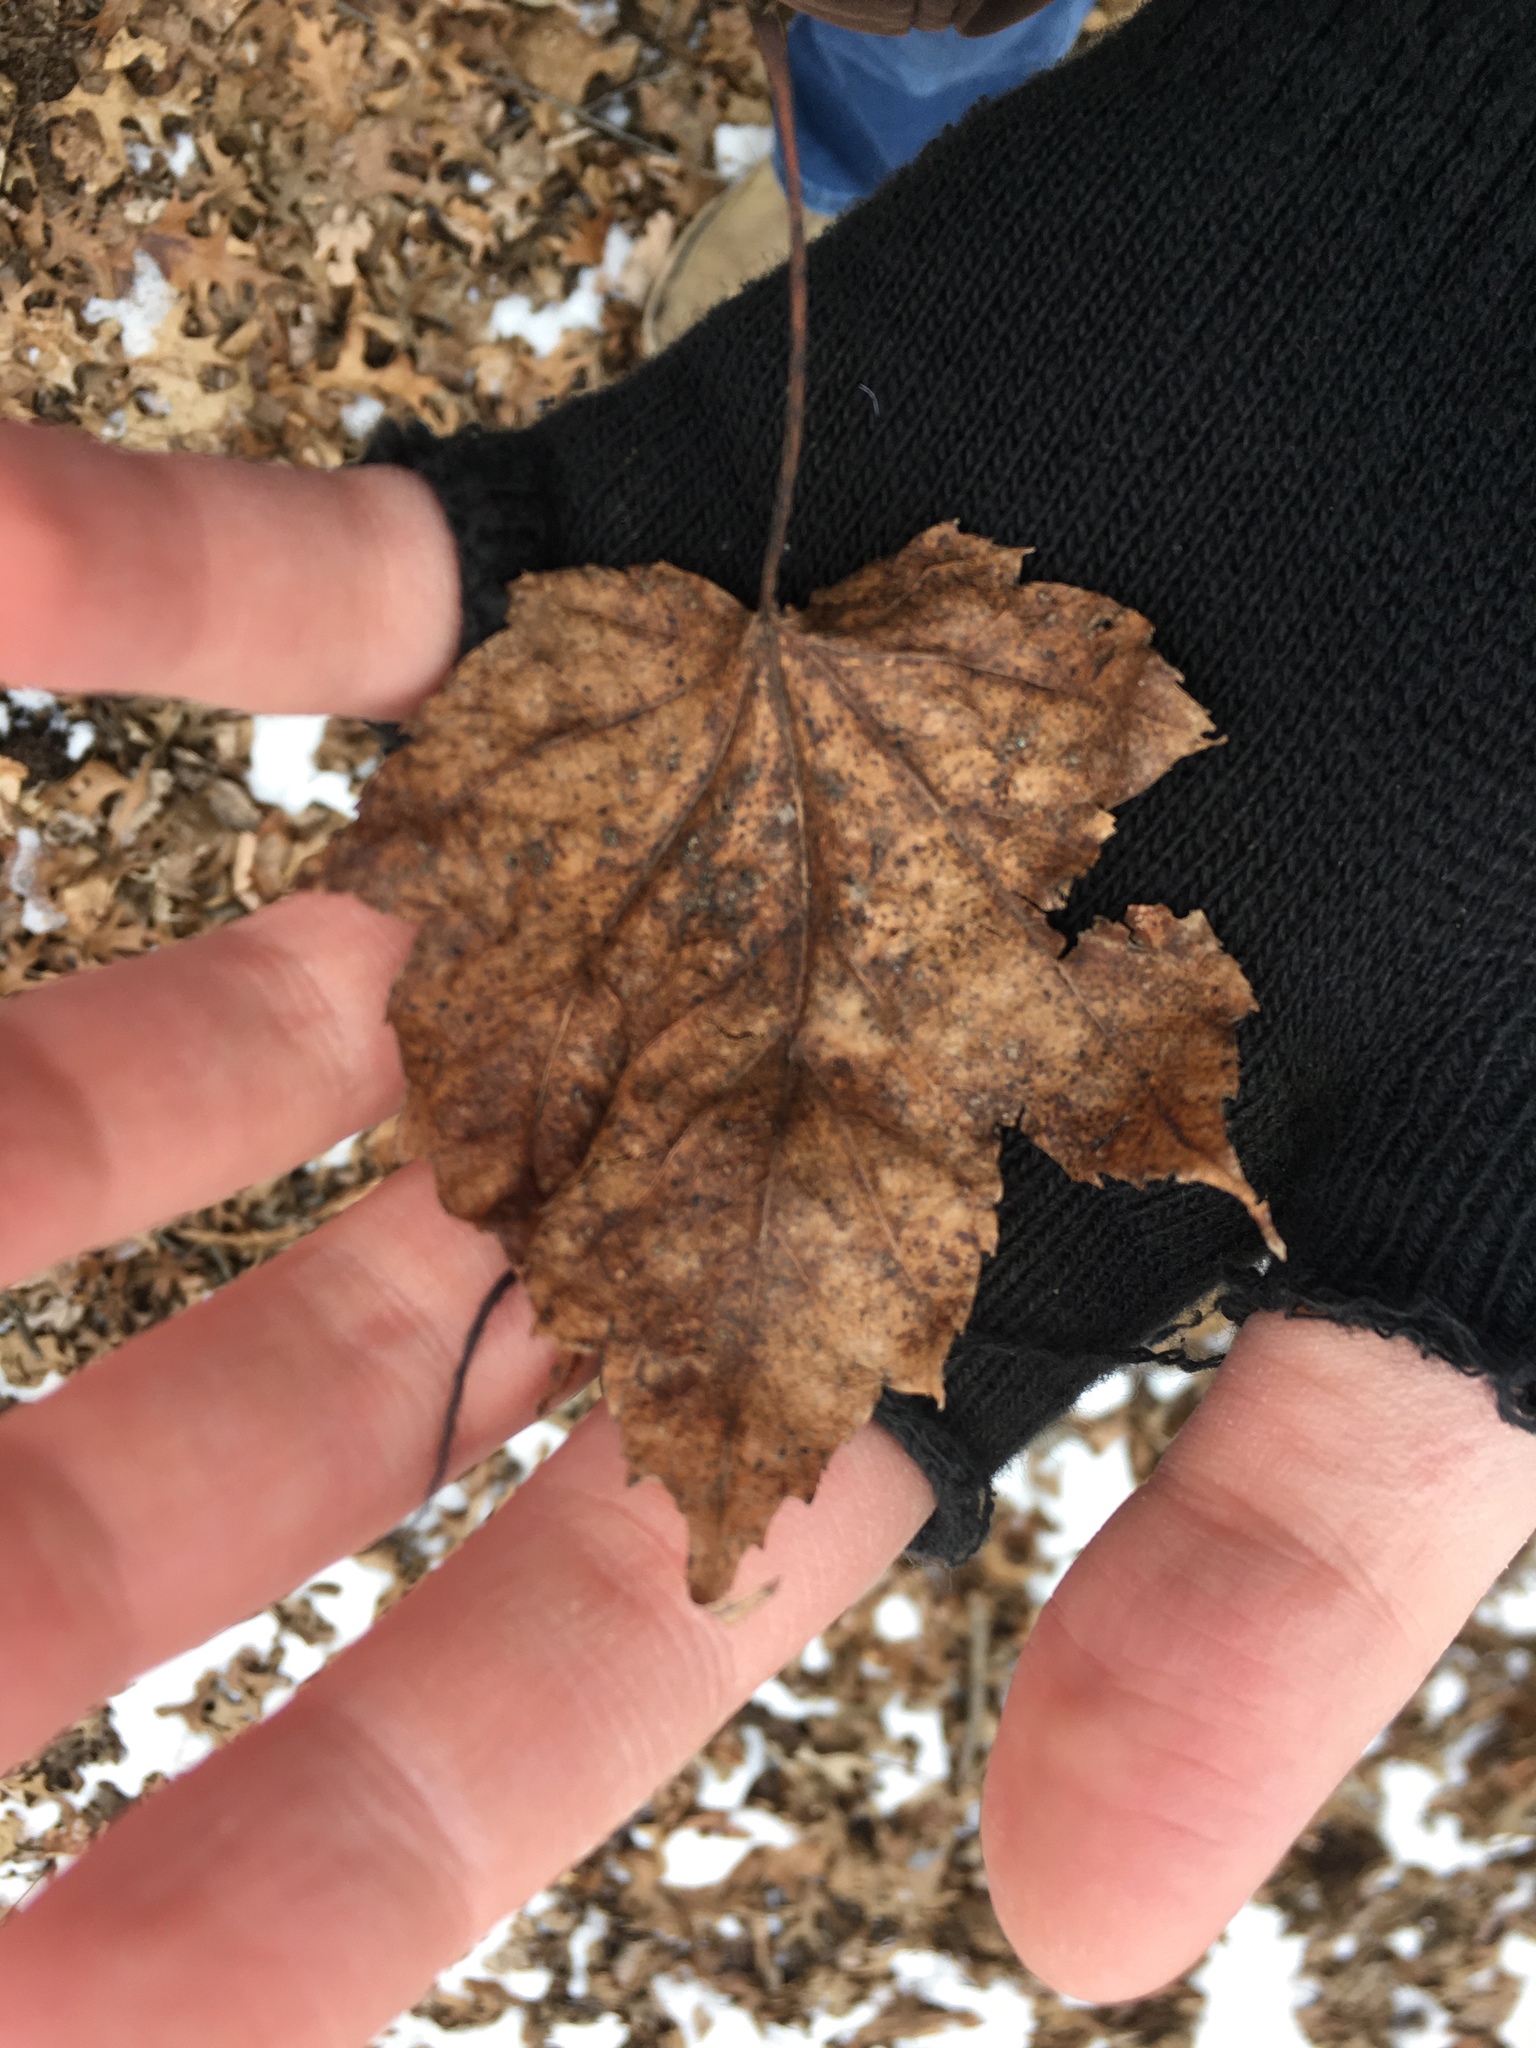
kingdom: Plantae
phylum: Tracheophyta
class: Magnoliopsida
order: Sapindales
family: Sapindaceae
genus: Acer
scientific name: Acer rubrum
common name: Red maple
